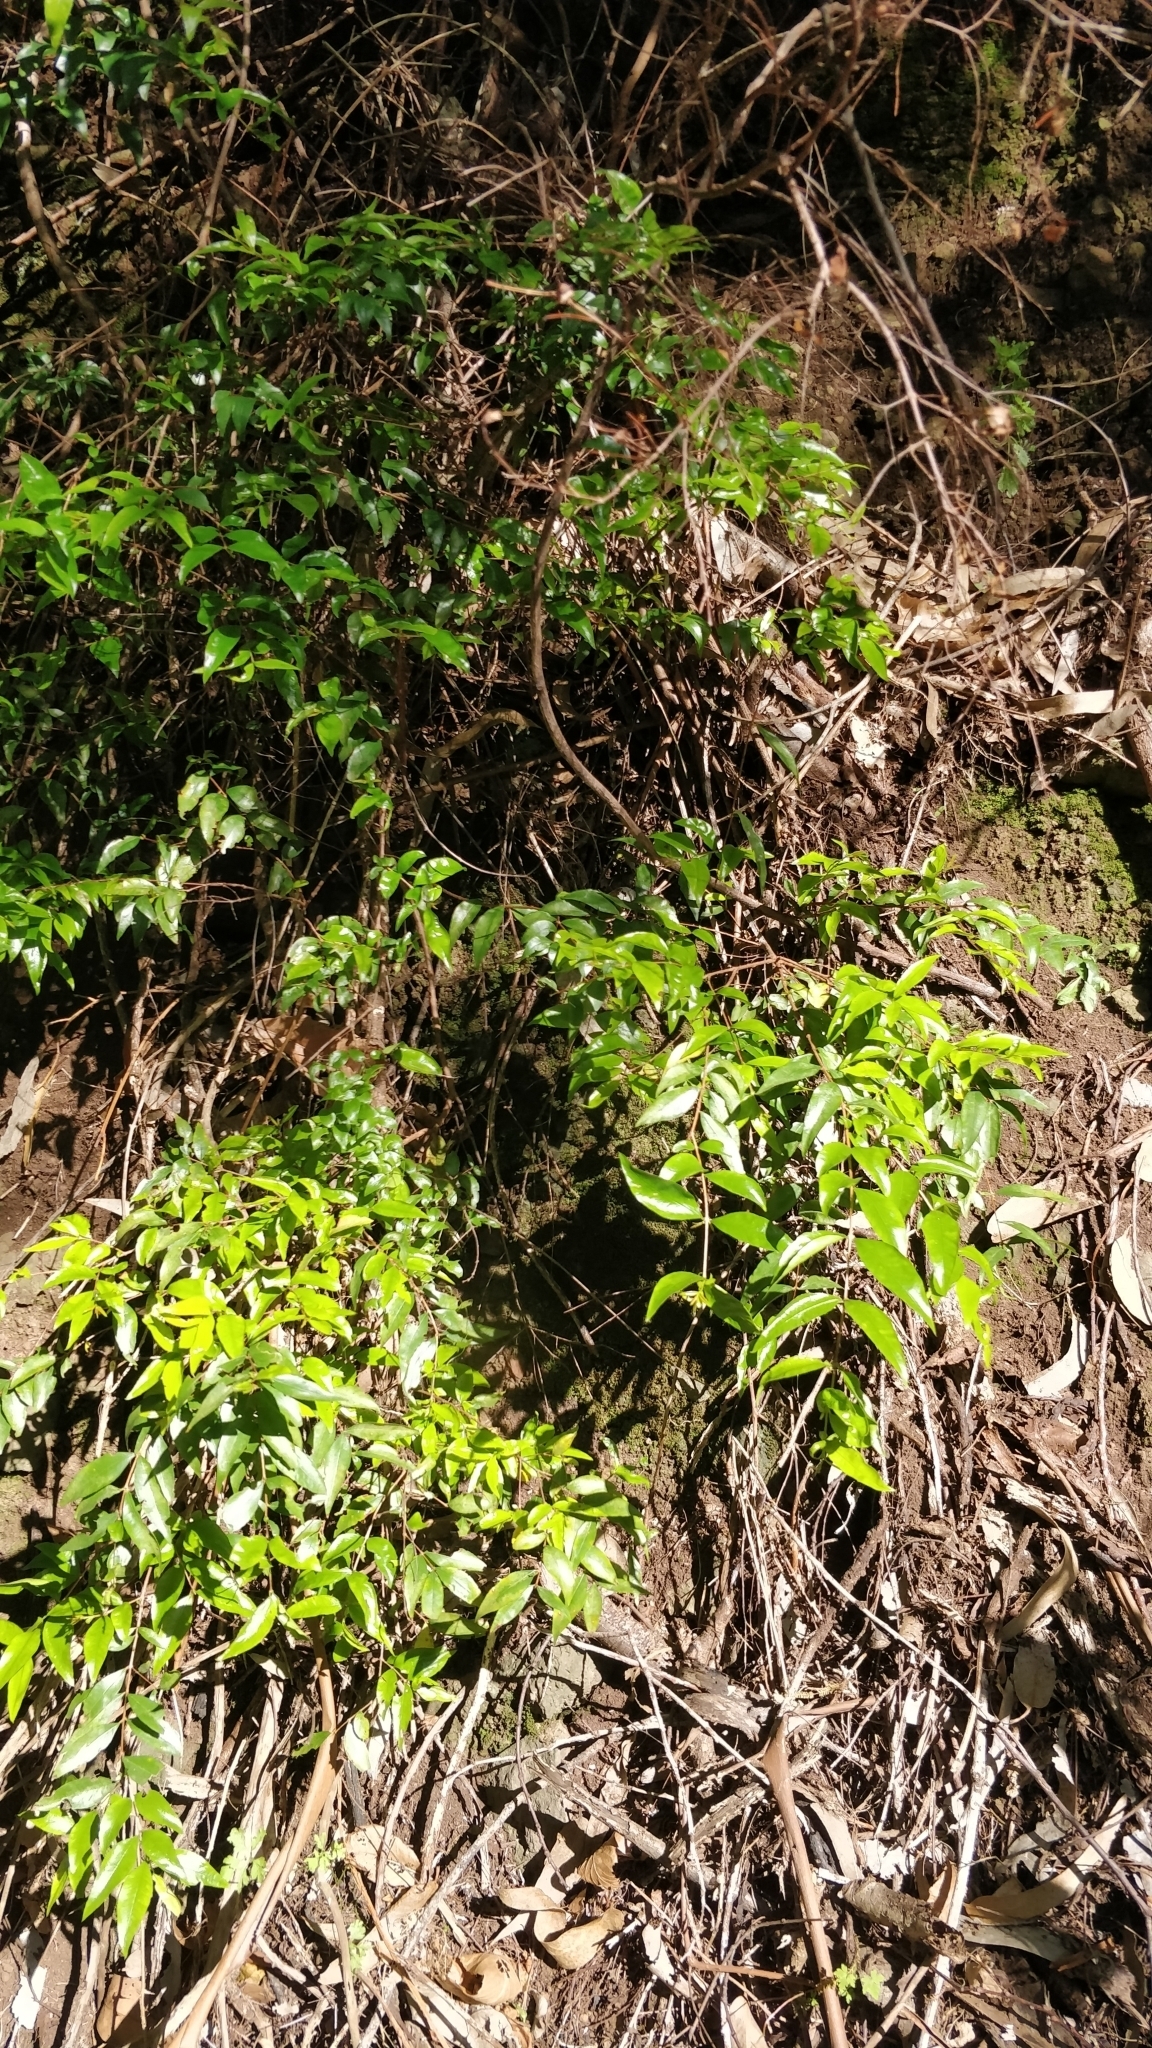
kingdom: Plantae
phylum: Tracheophyta
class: Magnoliopsida
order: Myrtales
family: Myrtaceae
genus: Myrtus
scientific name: Myrtus communis
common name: Myrtle
